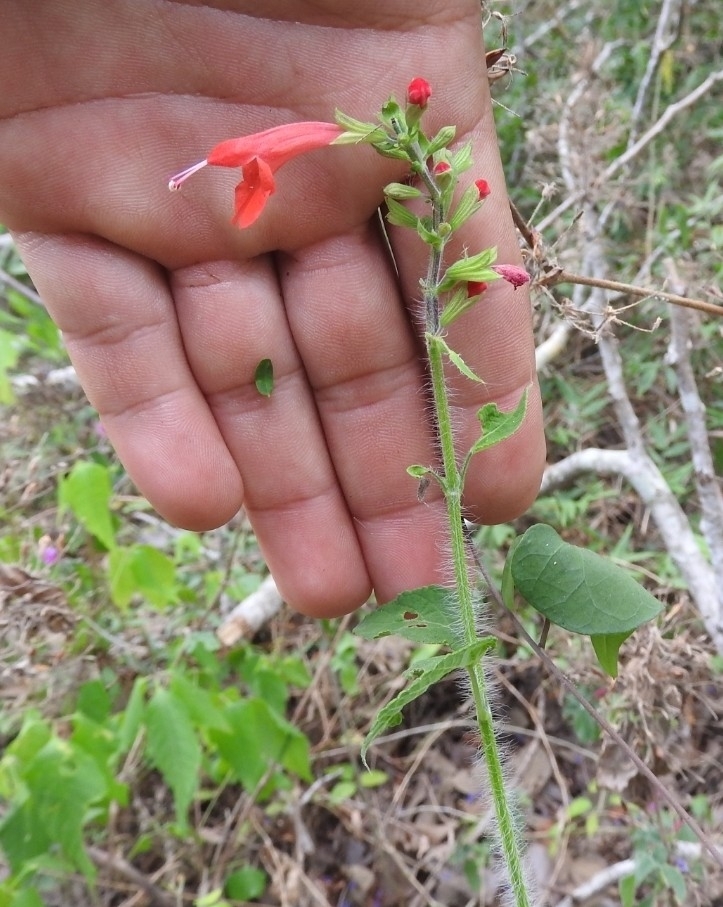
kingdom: Plantae
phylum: Tracheophyta
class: Magnoliopsida
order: Lamiales
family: Lamiaceae
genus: Salvia
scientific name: Salvia coccinea
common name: Blood sage
